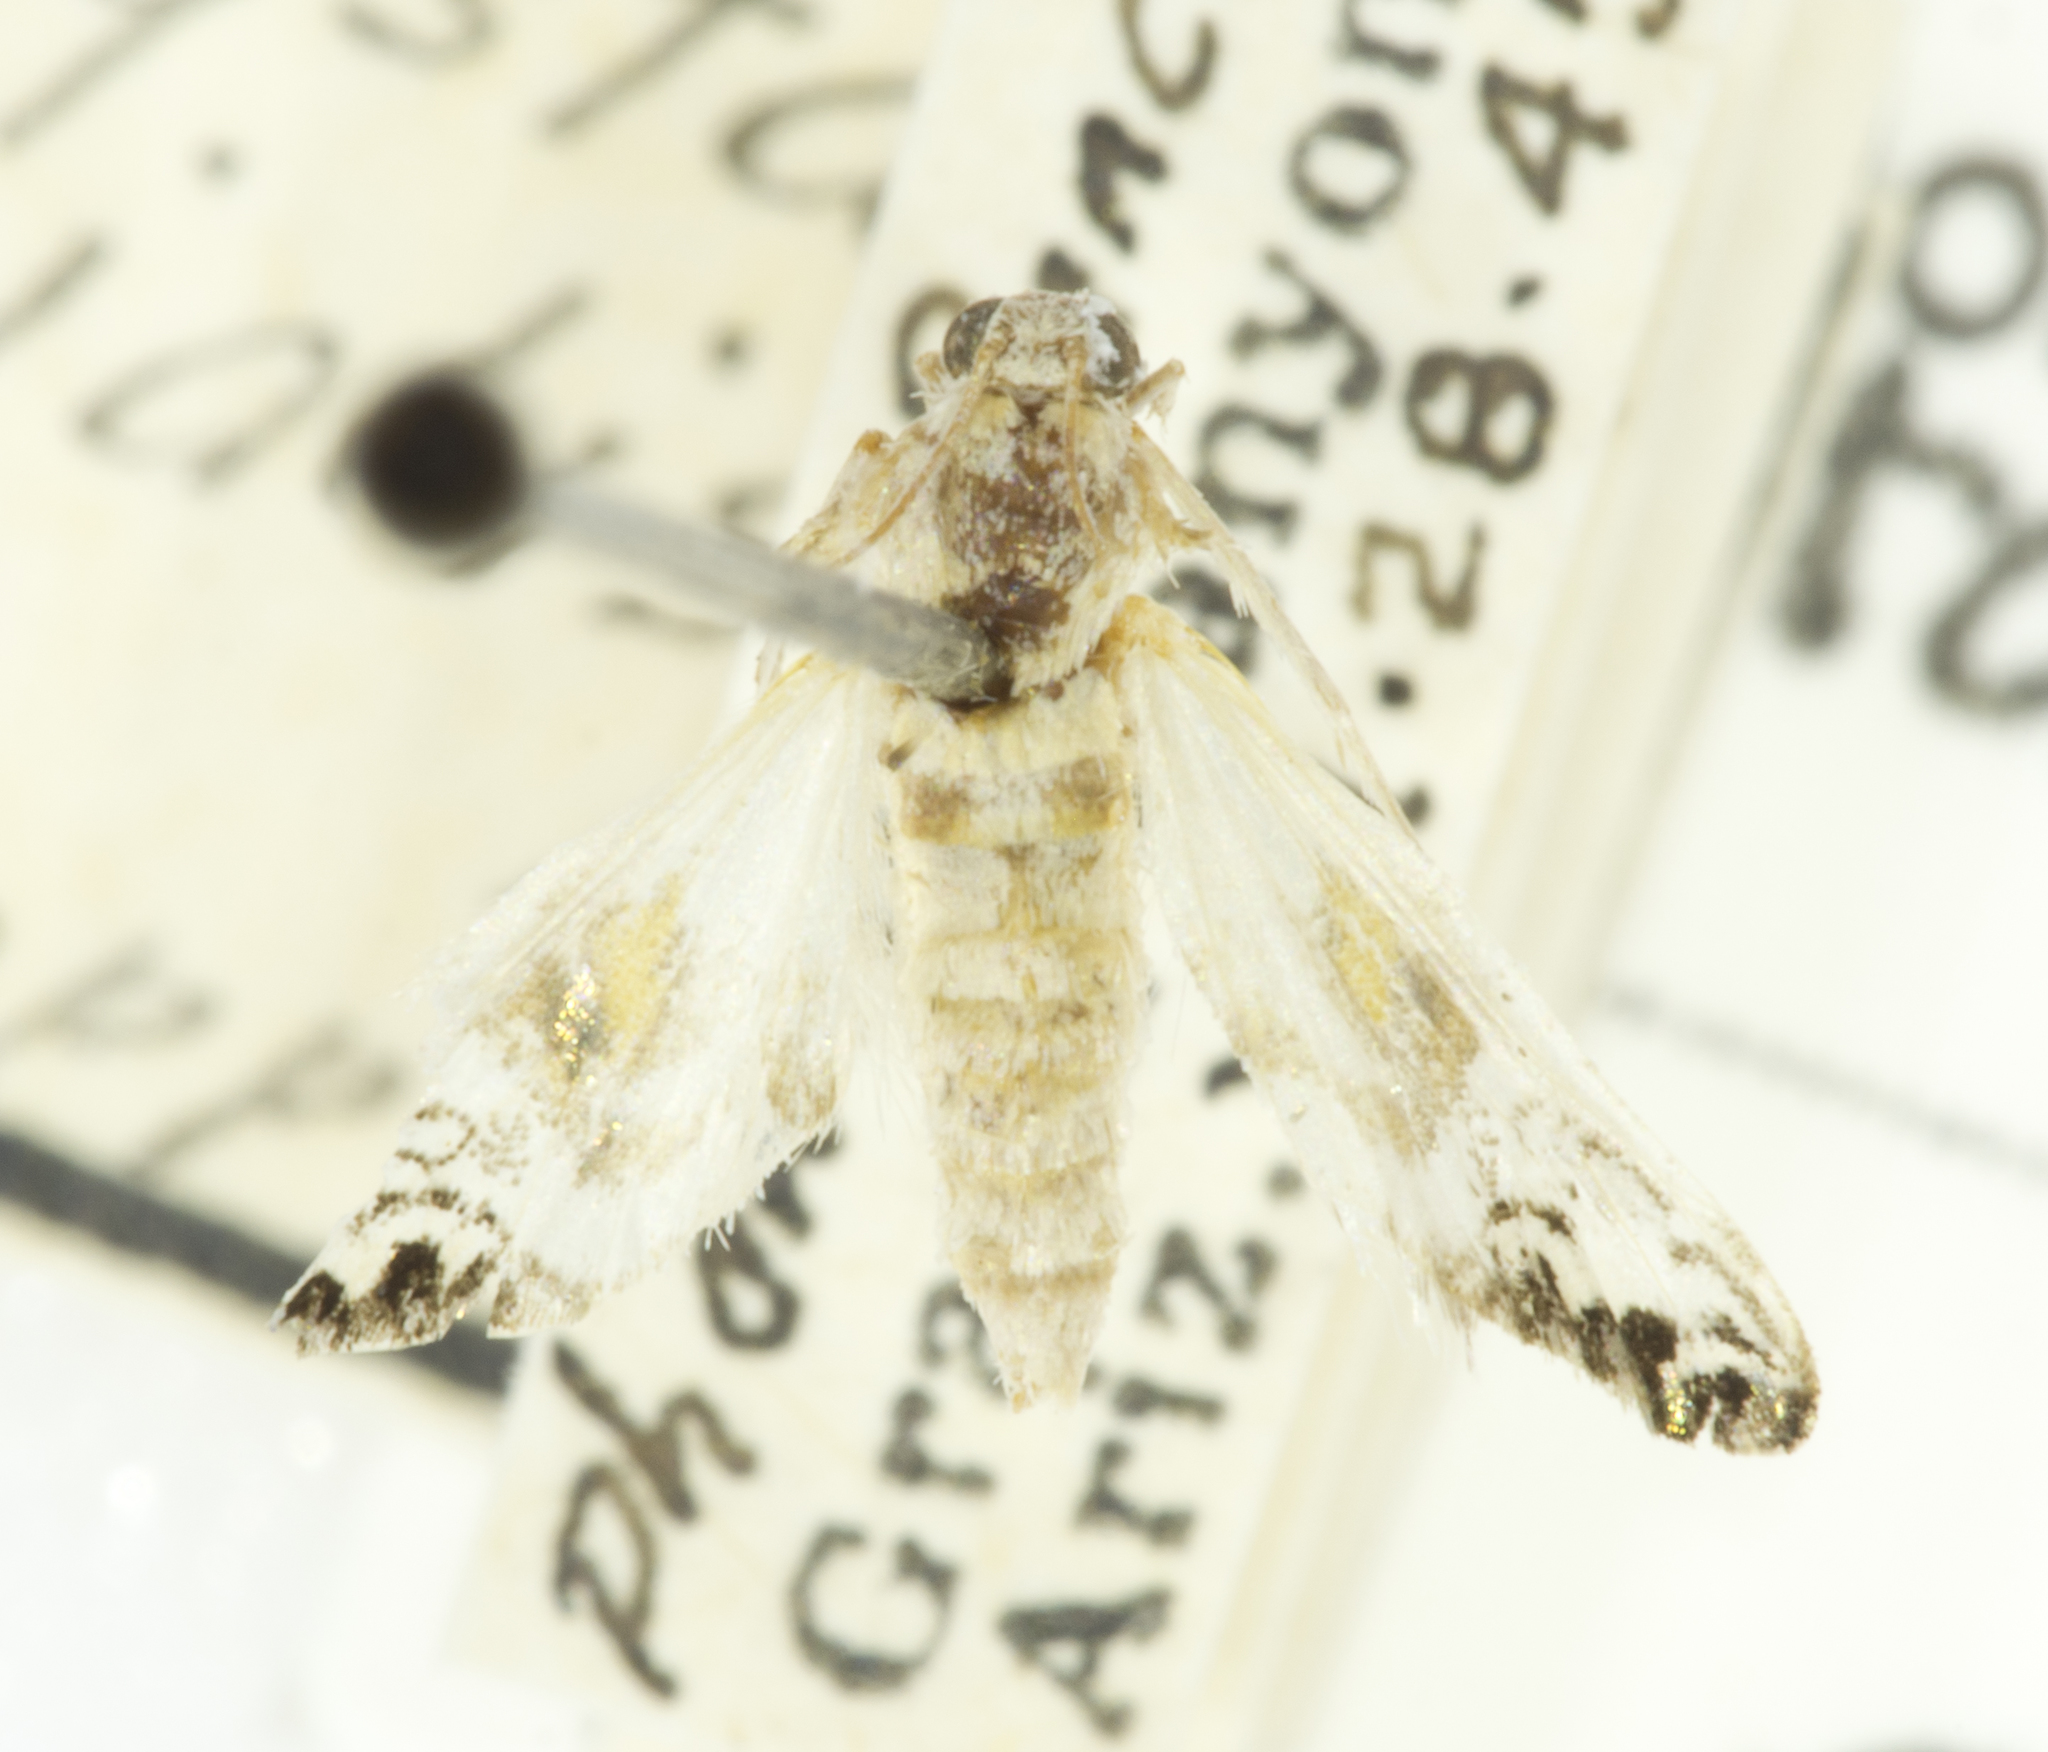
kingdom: Animalia
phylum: Arthropoda
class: Insecta
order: Lepidoptera
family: Crambidae
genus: Petrophila
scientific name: Petrophila kearfottalis
